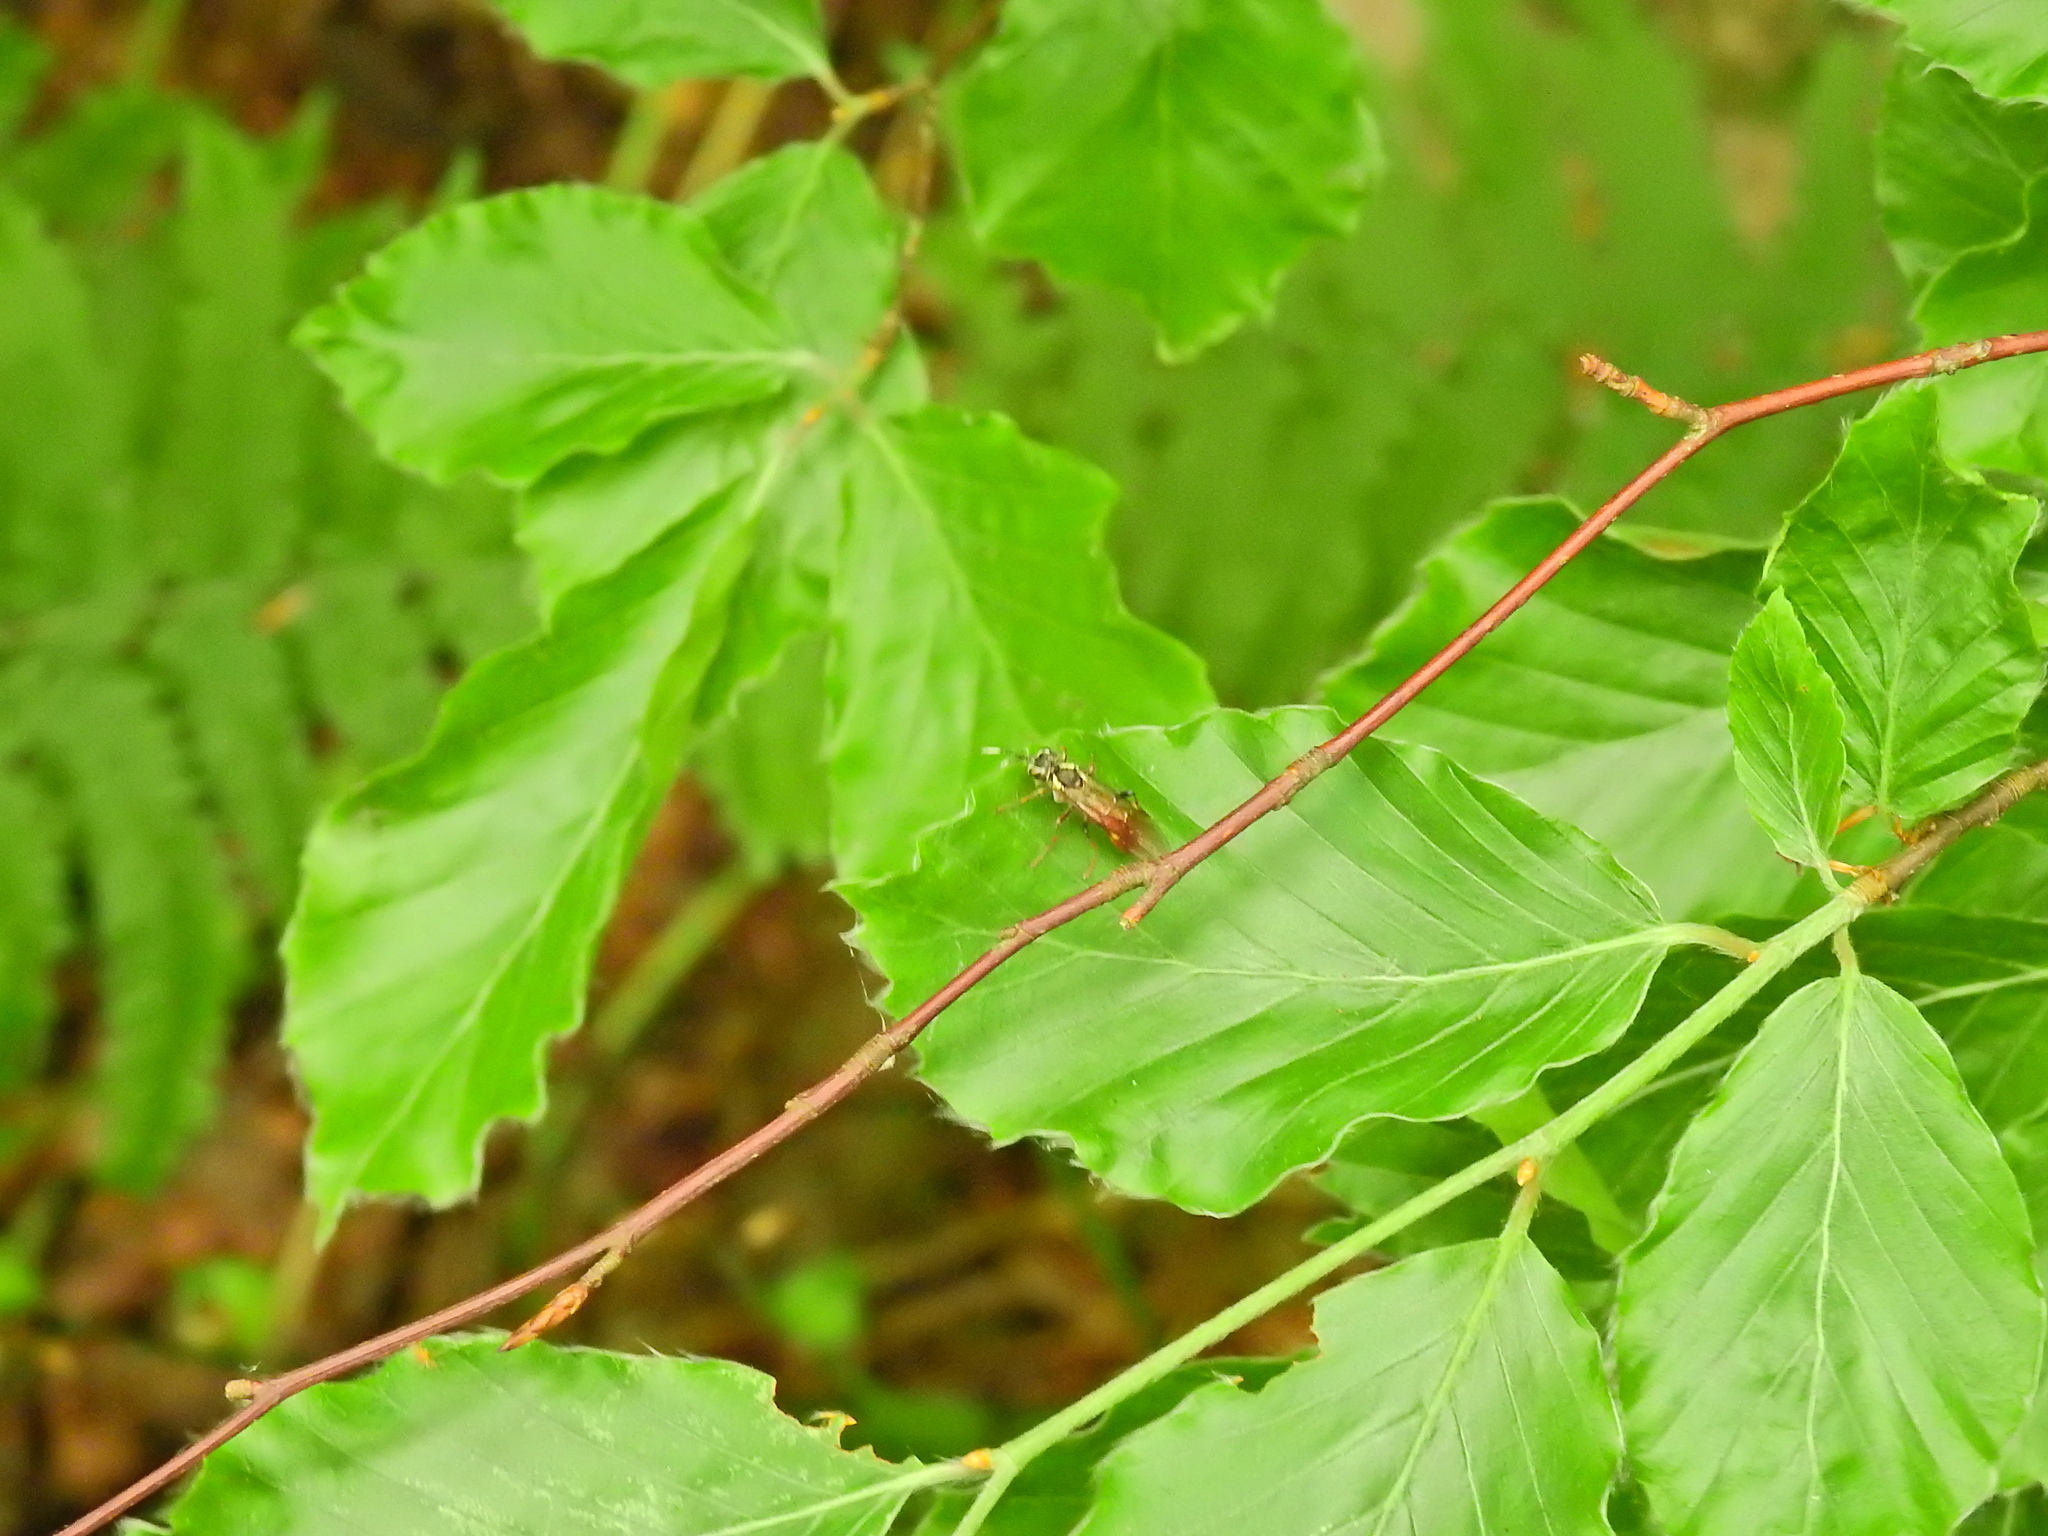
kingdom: Animalia
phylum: Arthropoda
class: Insecta
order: Hymenoptera
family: Tenthredinidae
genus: Tenthredo
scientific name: Tenthredo ferruginea
